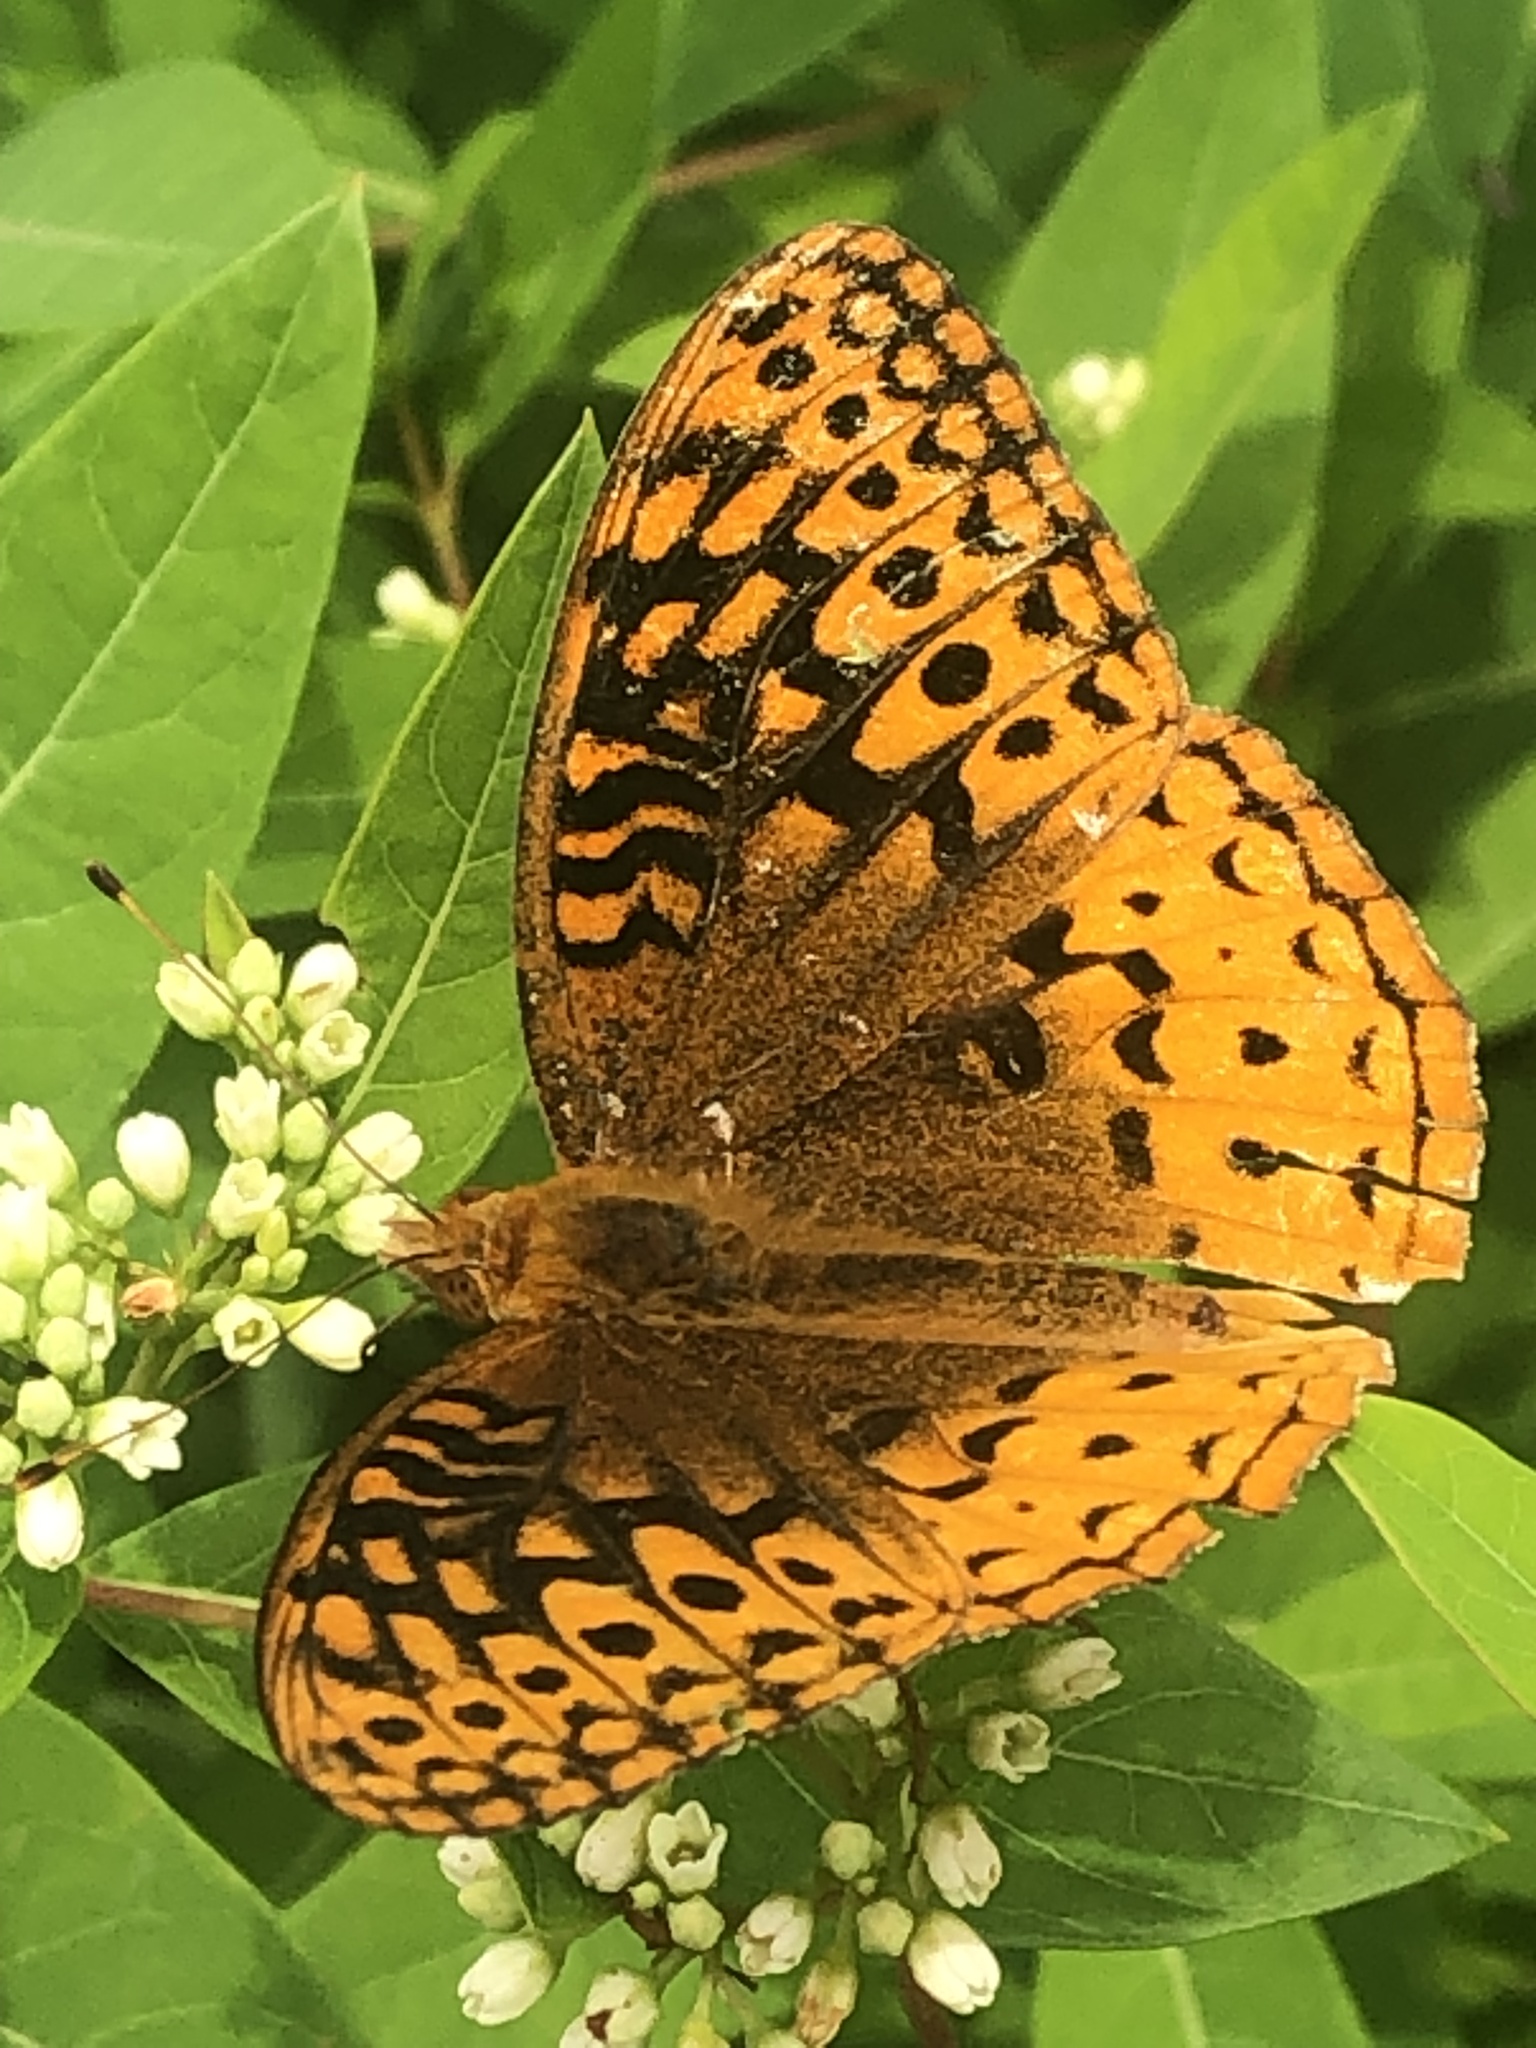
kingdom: Animalia
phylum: Arthropoda
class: Insecta
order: Lepidoptera
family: Nymphalidae
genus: Speyeria
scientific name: Speyeria cybele
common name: Great spangled fritillary
